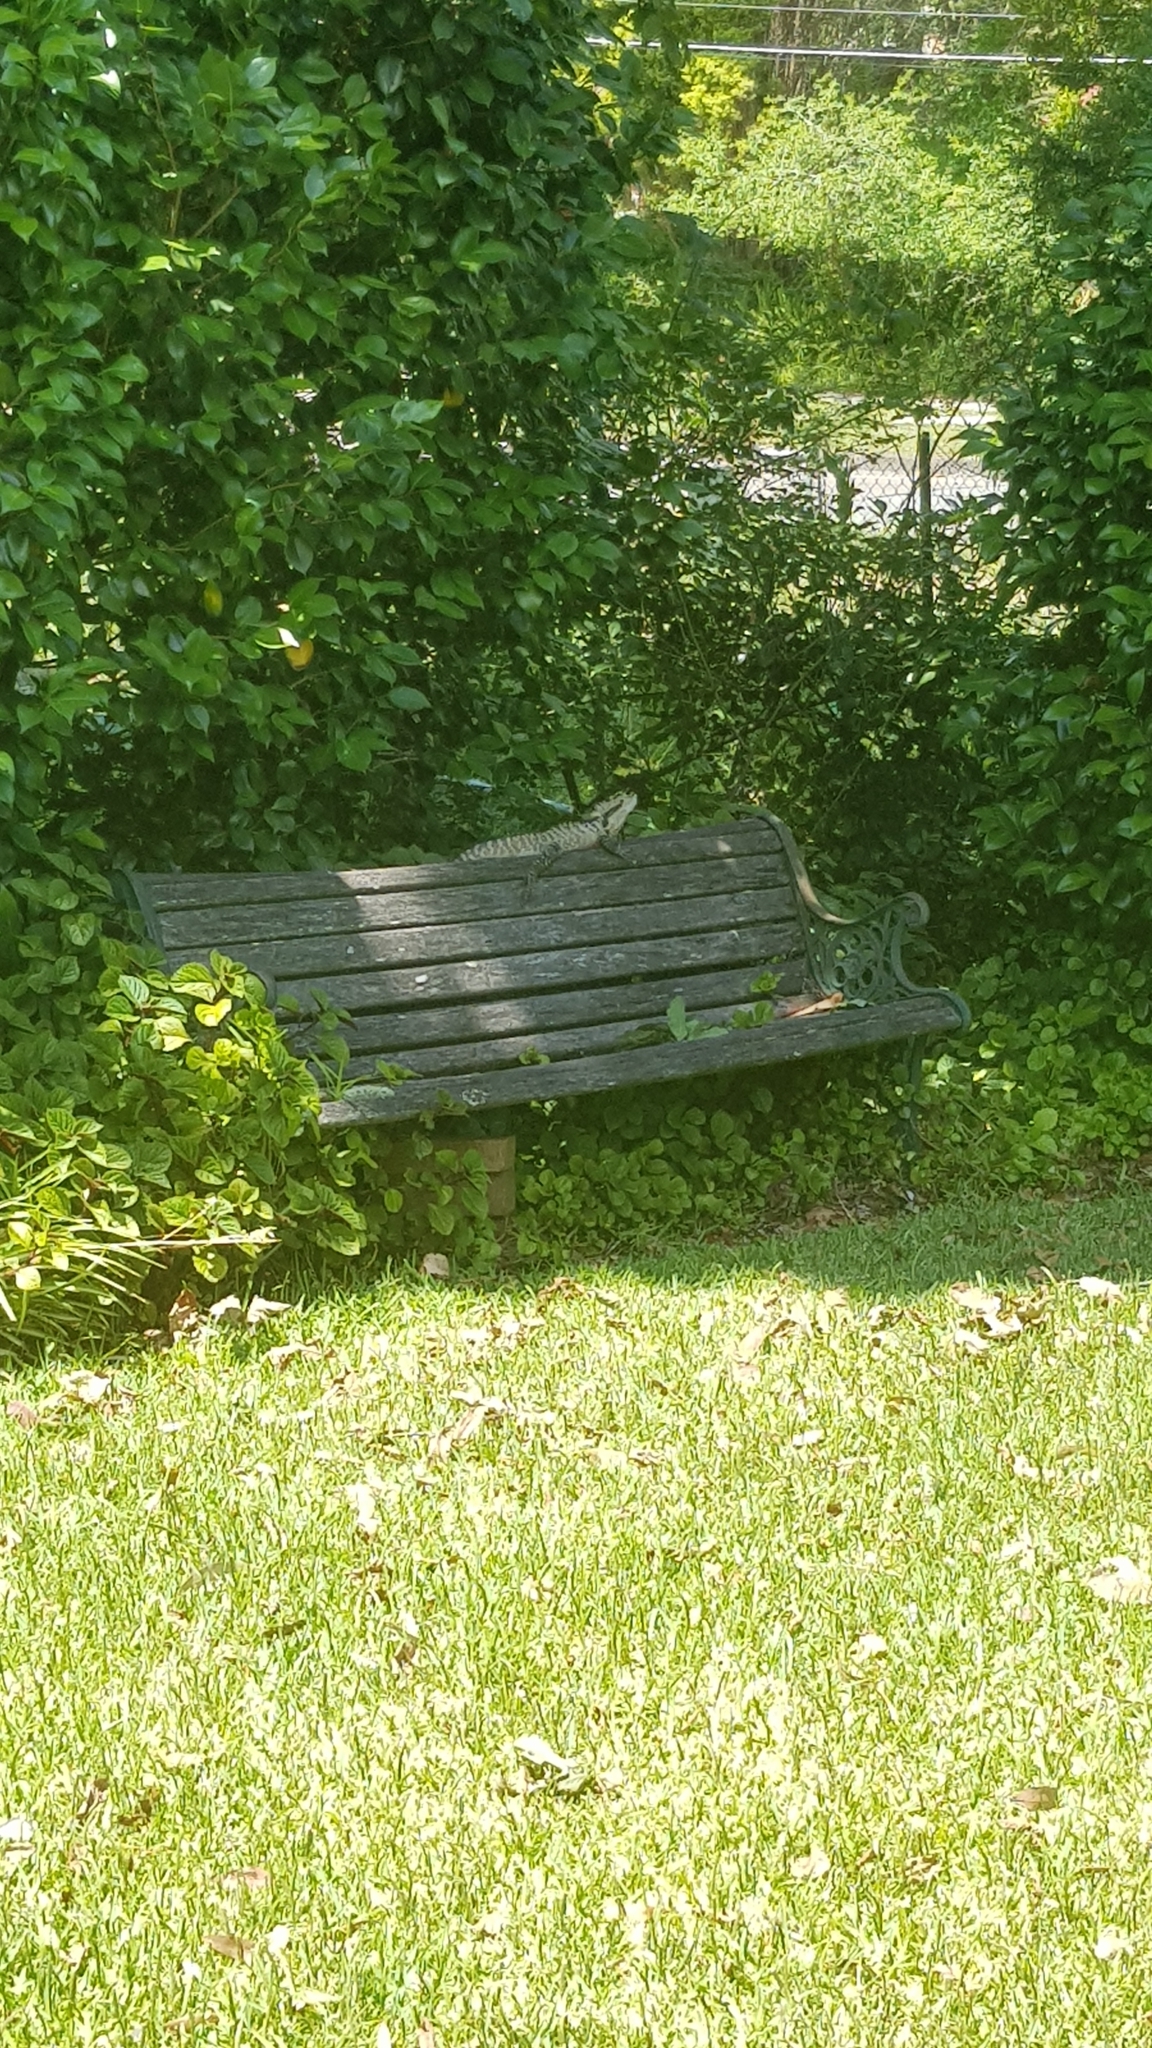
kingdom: Animalia
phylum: Chordata
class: Squamata
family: Agamidae
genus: Intellagama
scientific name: Intellagama lesueurii
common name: Eastern water dragon
